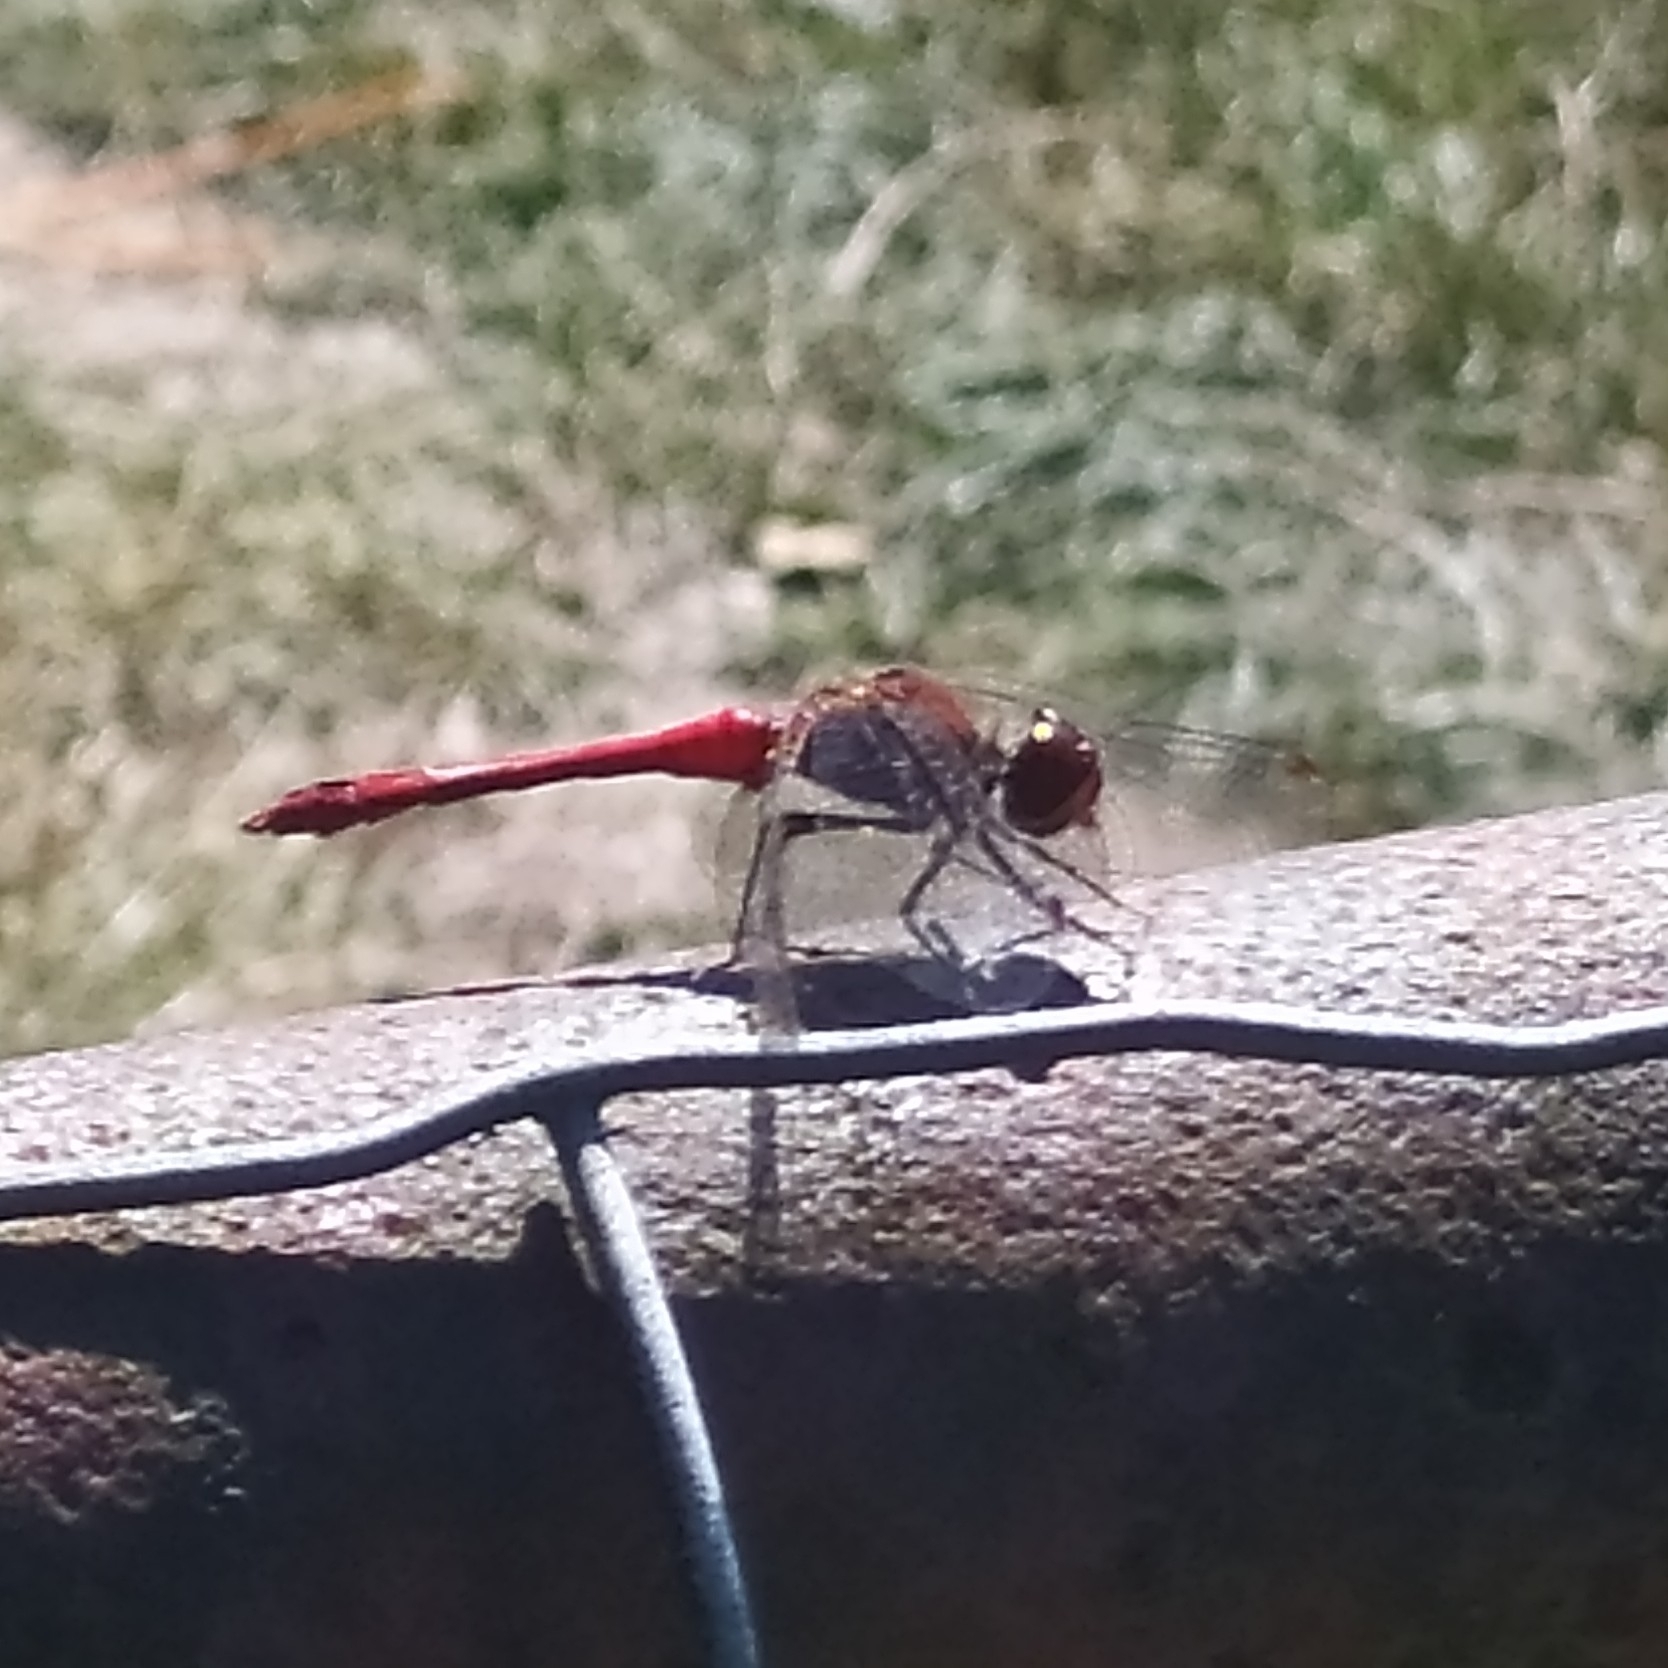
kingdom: Animalia
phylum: Arthropoda
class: Insecta
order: Odonata
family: Libellulidae
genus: Sympetrum
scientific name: Sympetrum sanguineum
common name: Ruddy darter
